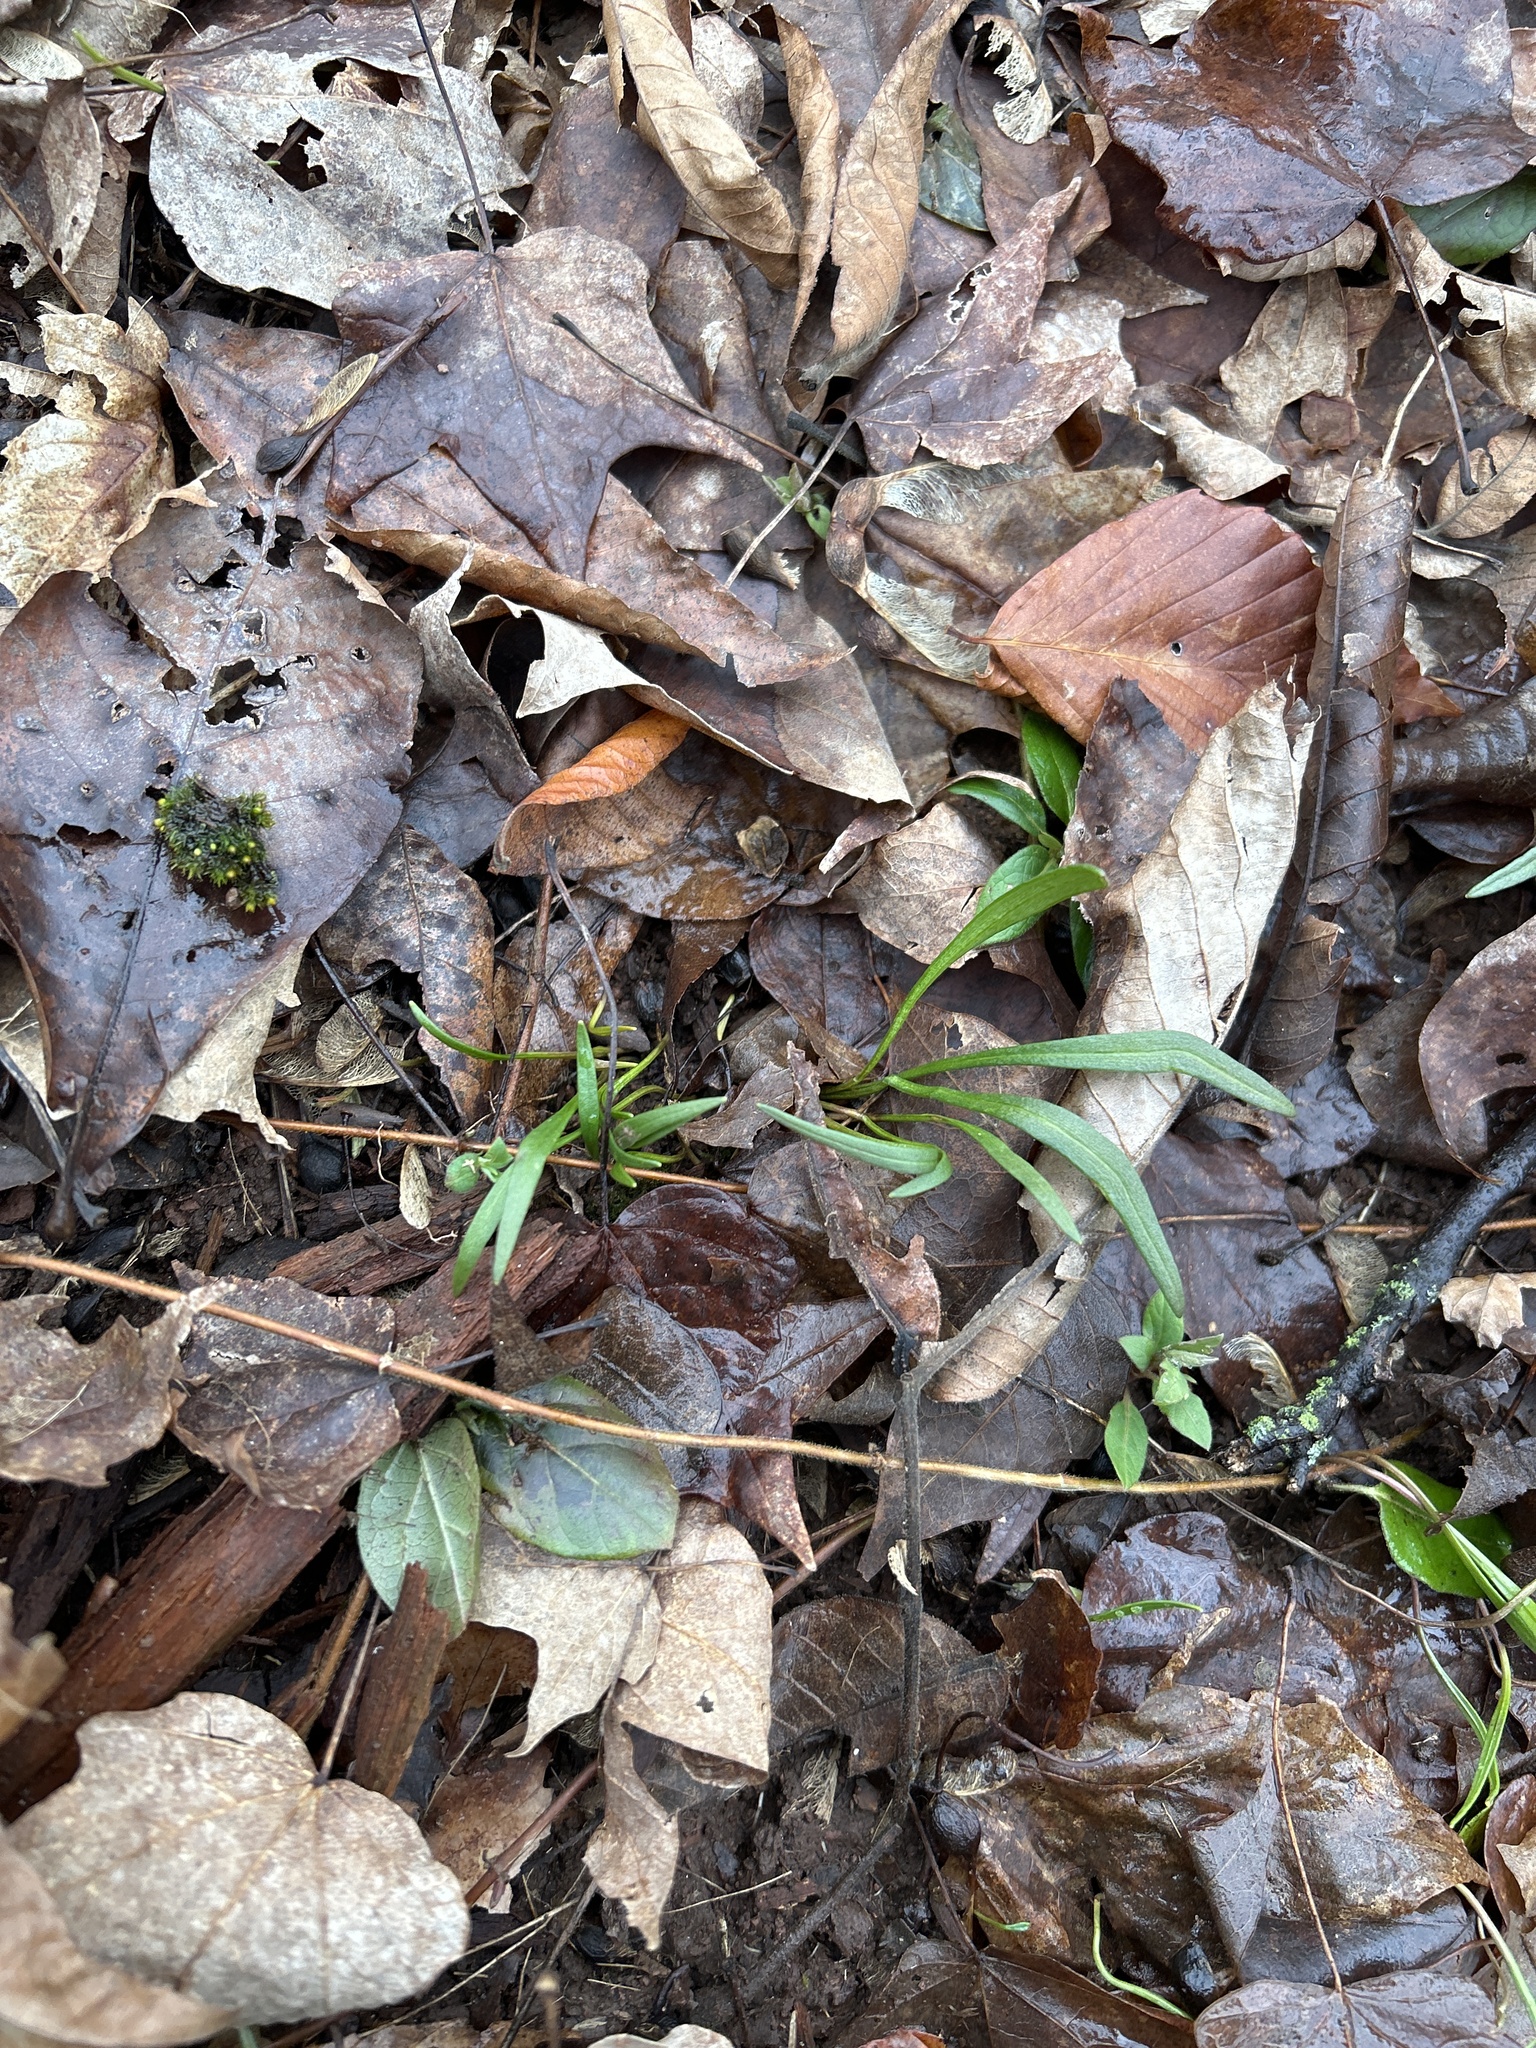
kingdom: Plantae
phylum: Tracheophyta
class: Magnoliopsida
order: Caryophyllales
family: Montiaceae
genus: Claytonia
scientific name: Claytonia virginica
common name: Virginia springbeauty
